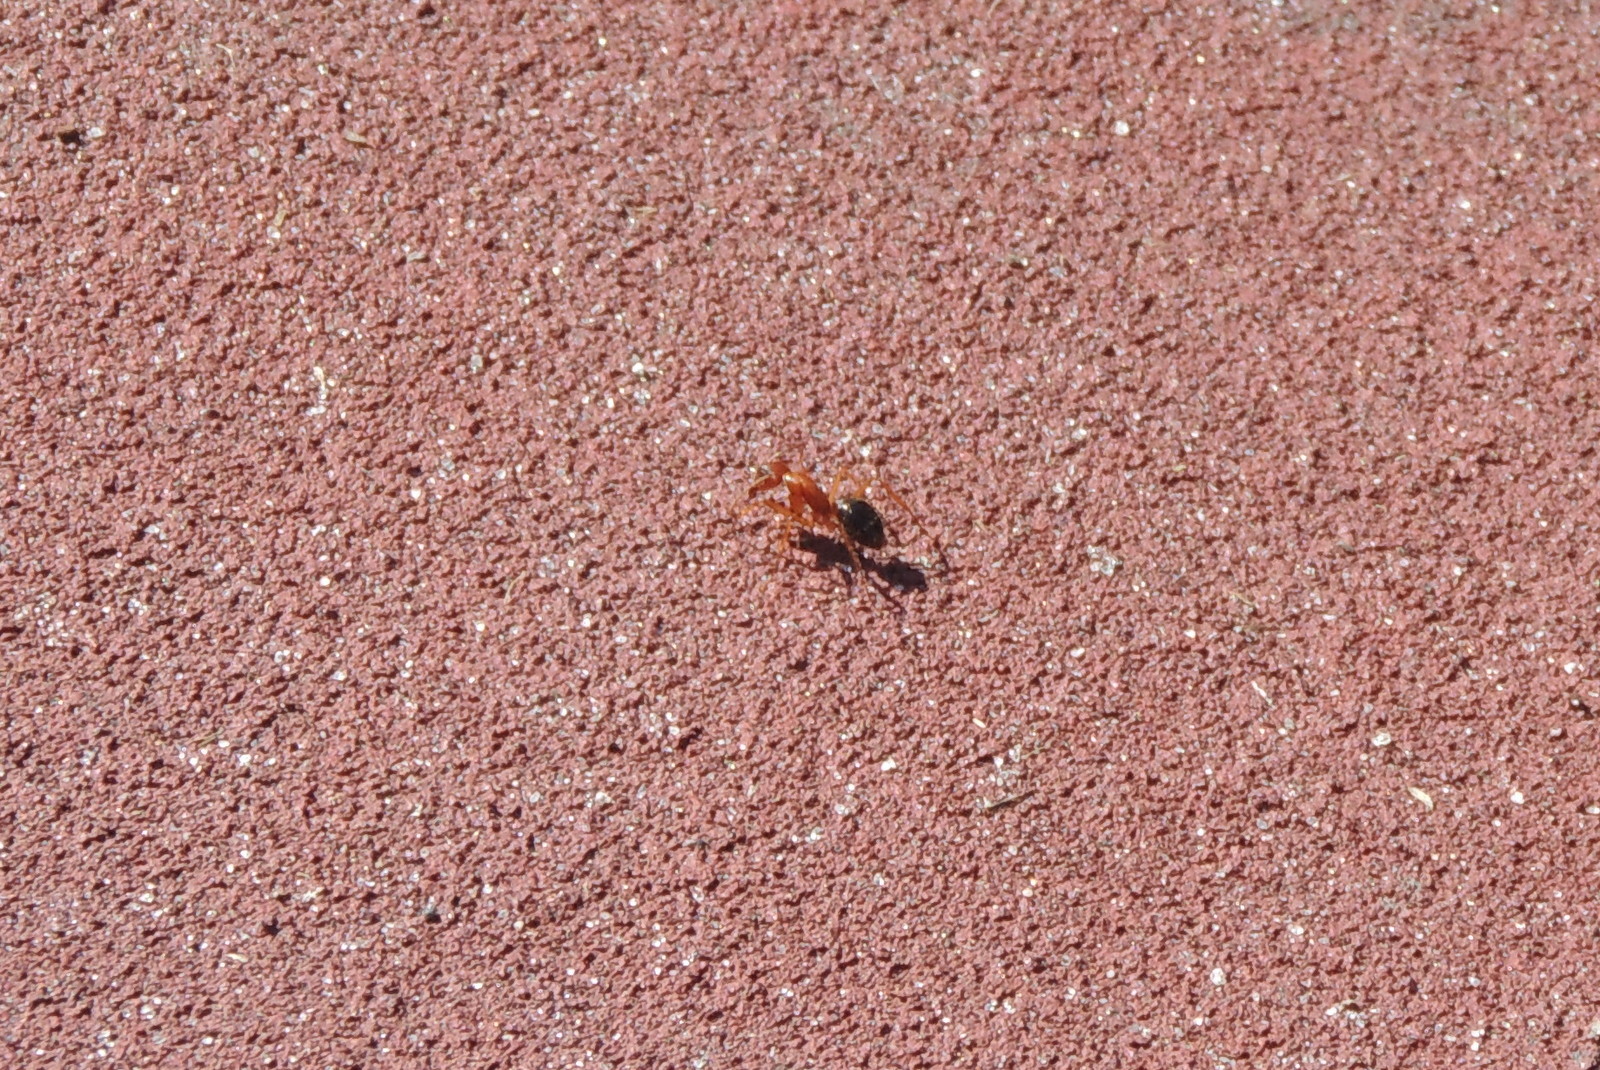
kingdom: Animalia
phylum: Arthropoda
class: Insecta
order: Hymenoptera
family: Formicidae
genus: Camponotus
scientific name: Camponotus floridanus
